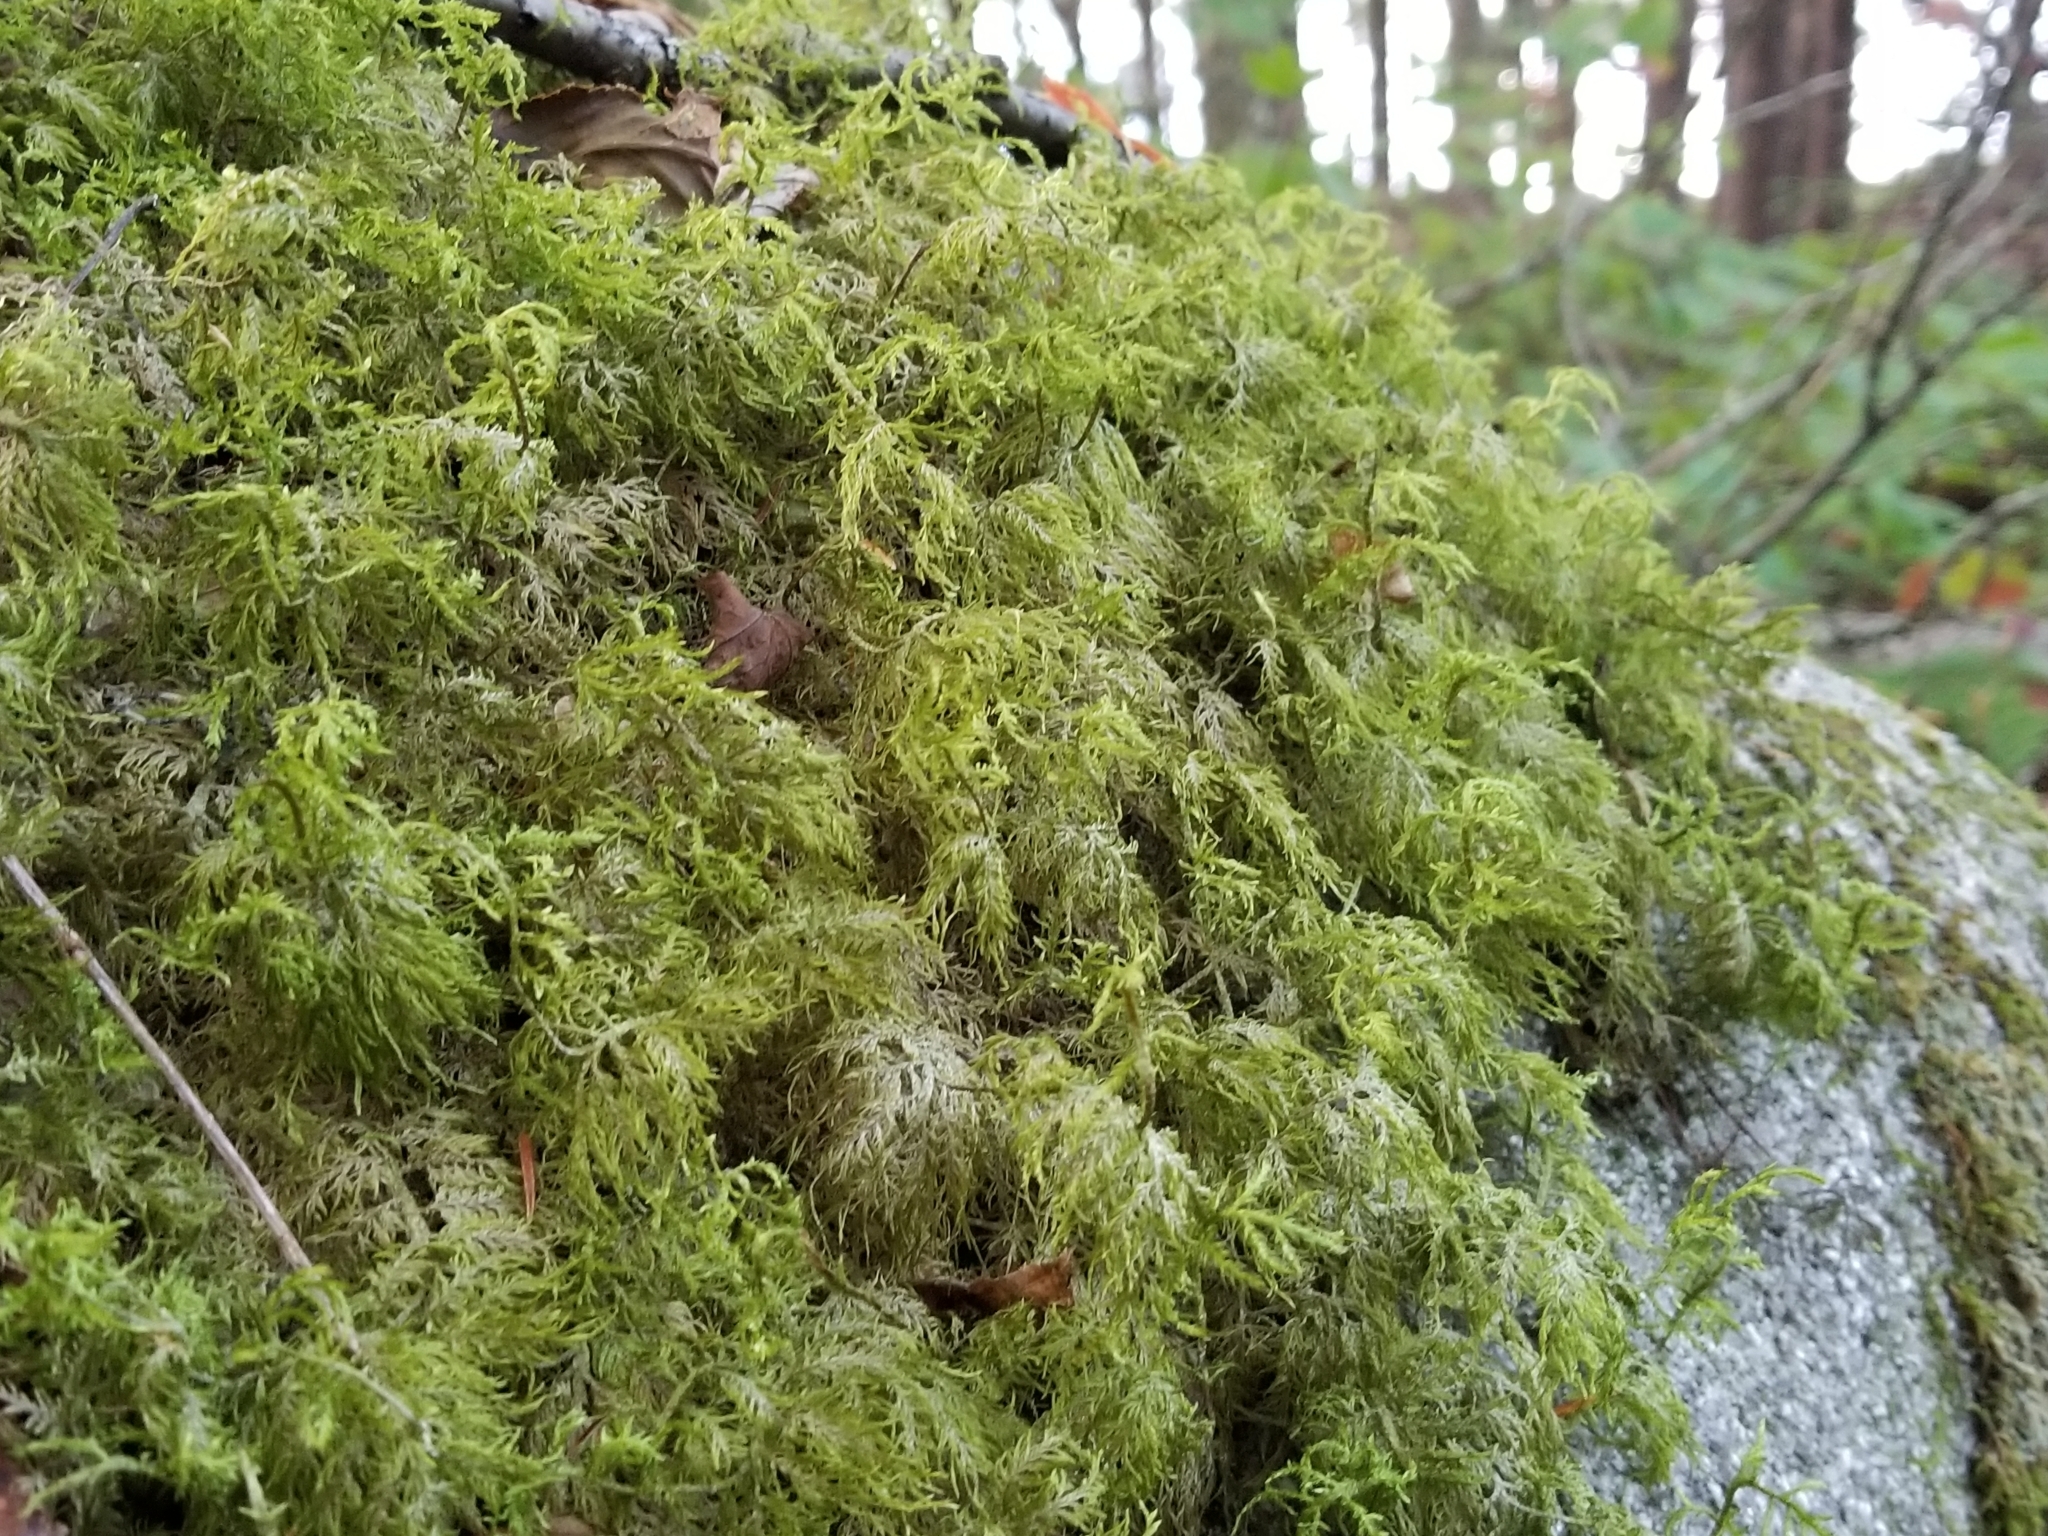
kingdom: Plantae
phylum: Bryophyta
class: Bryopsida
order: Hypnales
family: Hylocomiaceae
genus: Hylocomium
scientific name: Hylocomium splendens
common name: Stairstep moss
